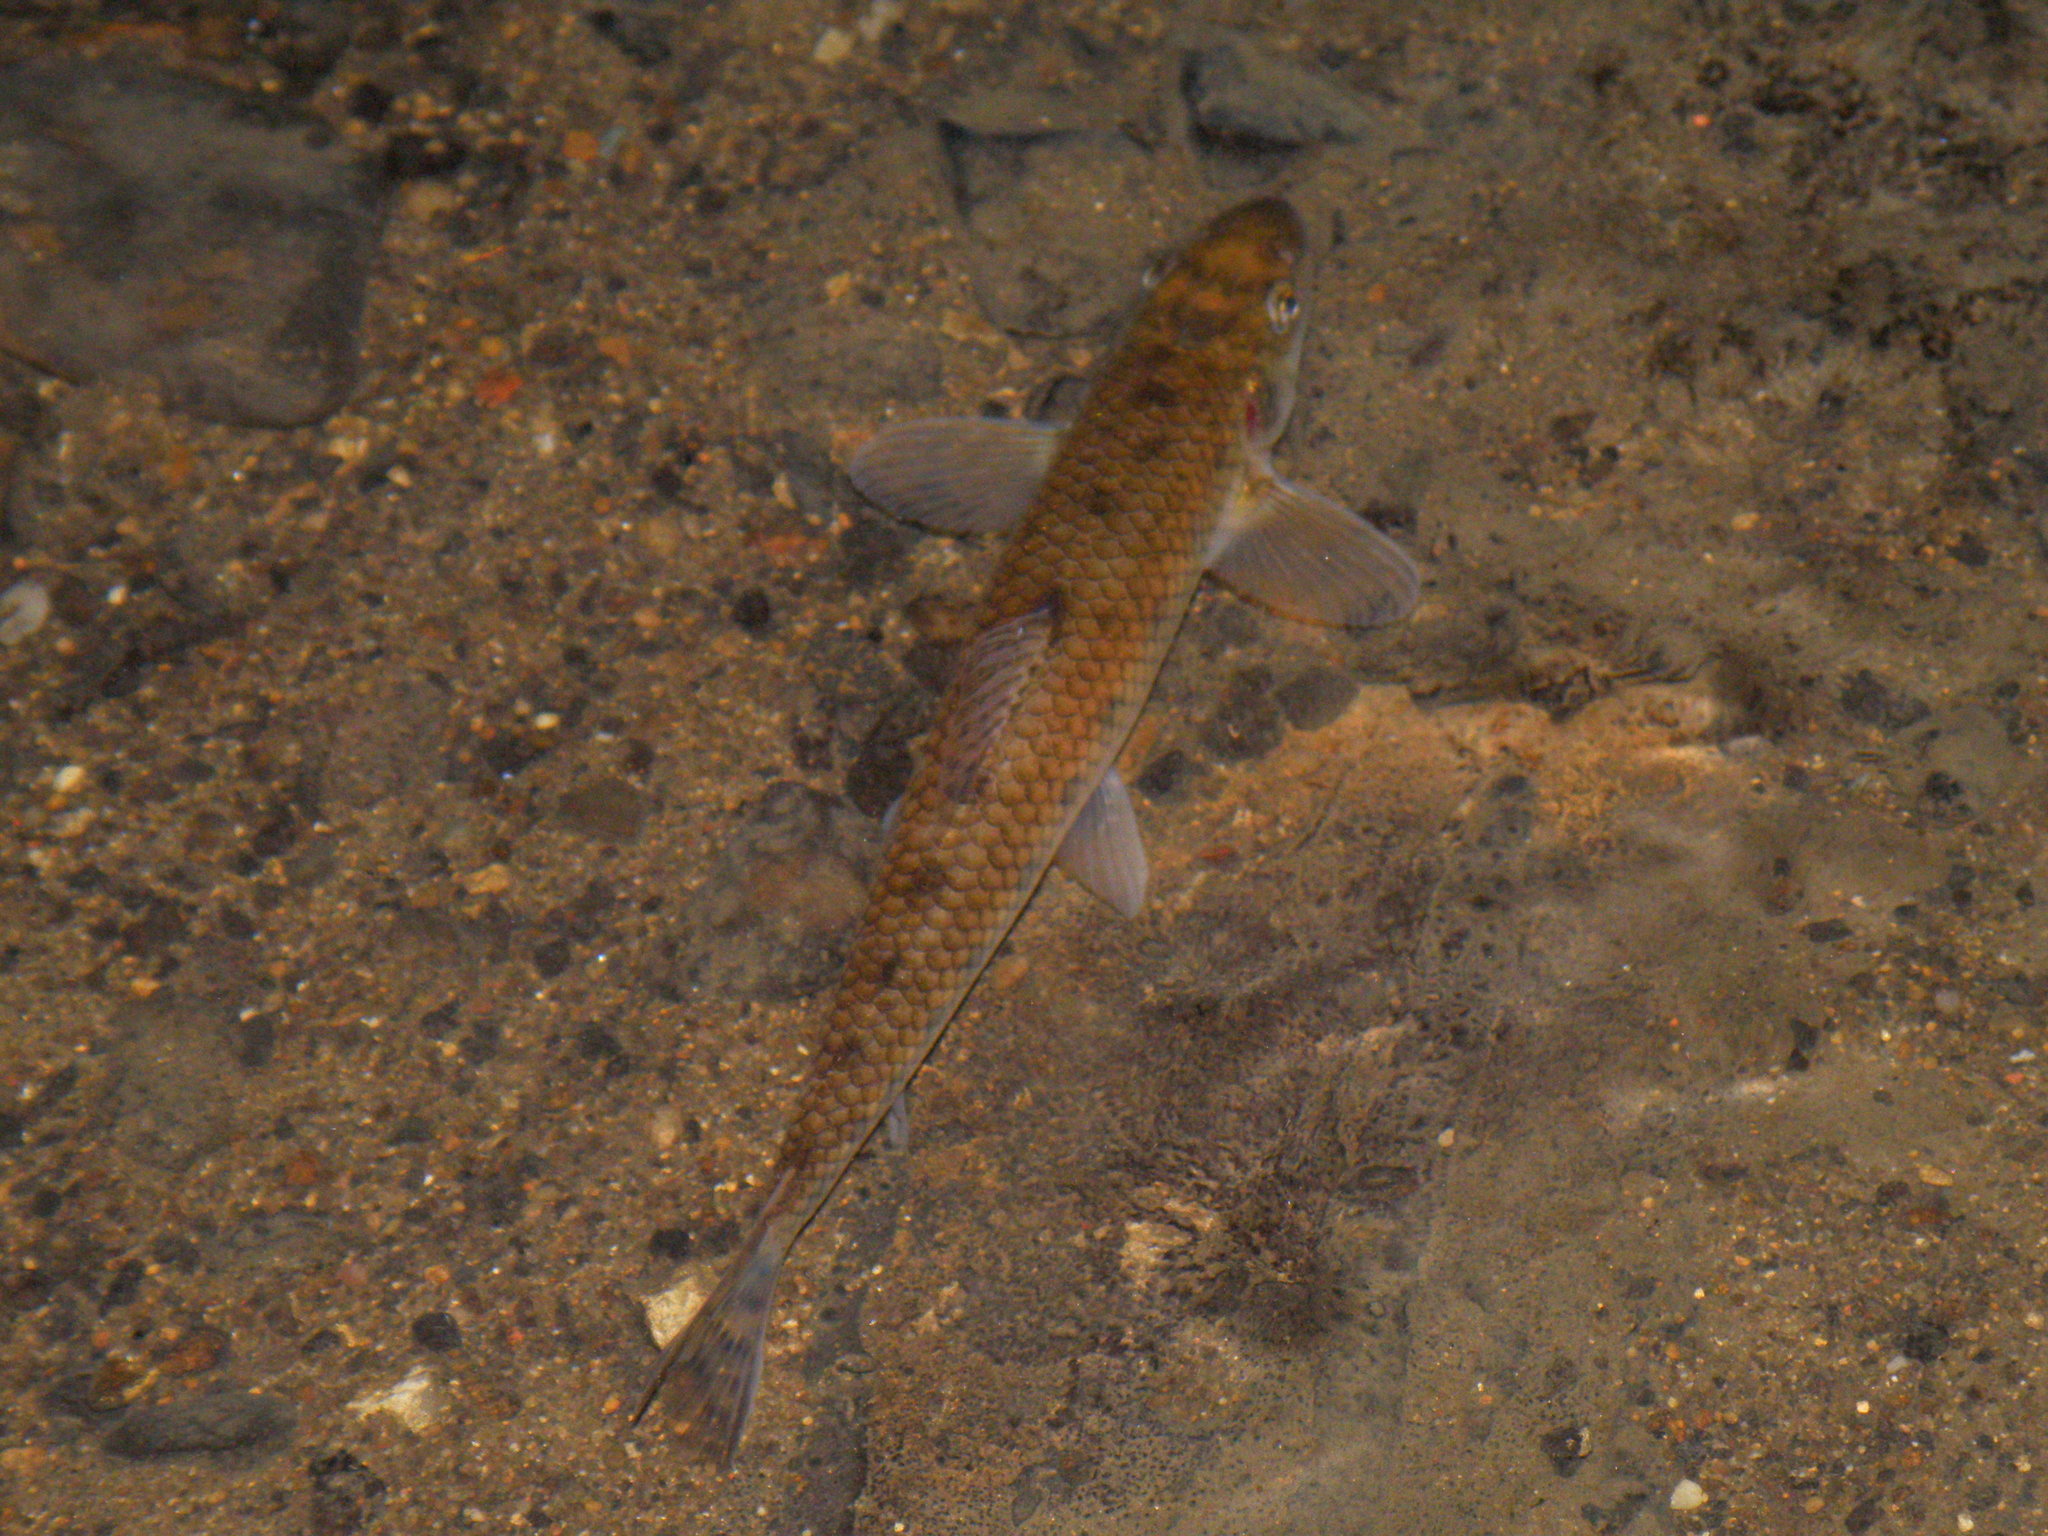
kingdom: Animalia
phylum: Chordata
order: Cypriniformes
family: Cyprinidae
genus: Gobio
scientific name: Gobio gobio
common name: Gudgeon
